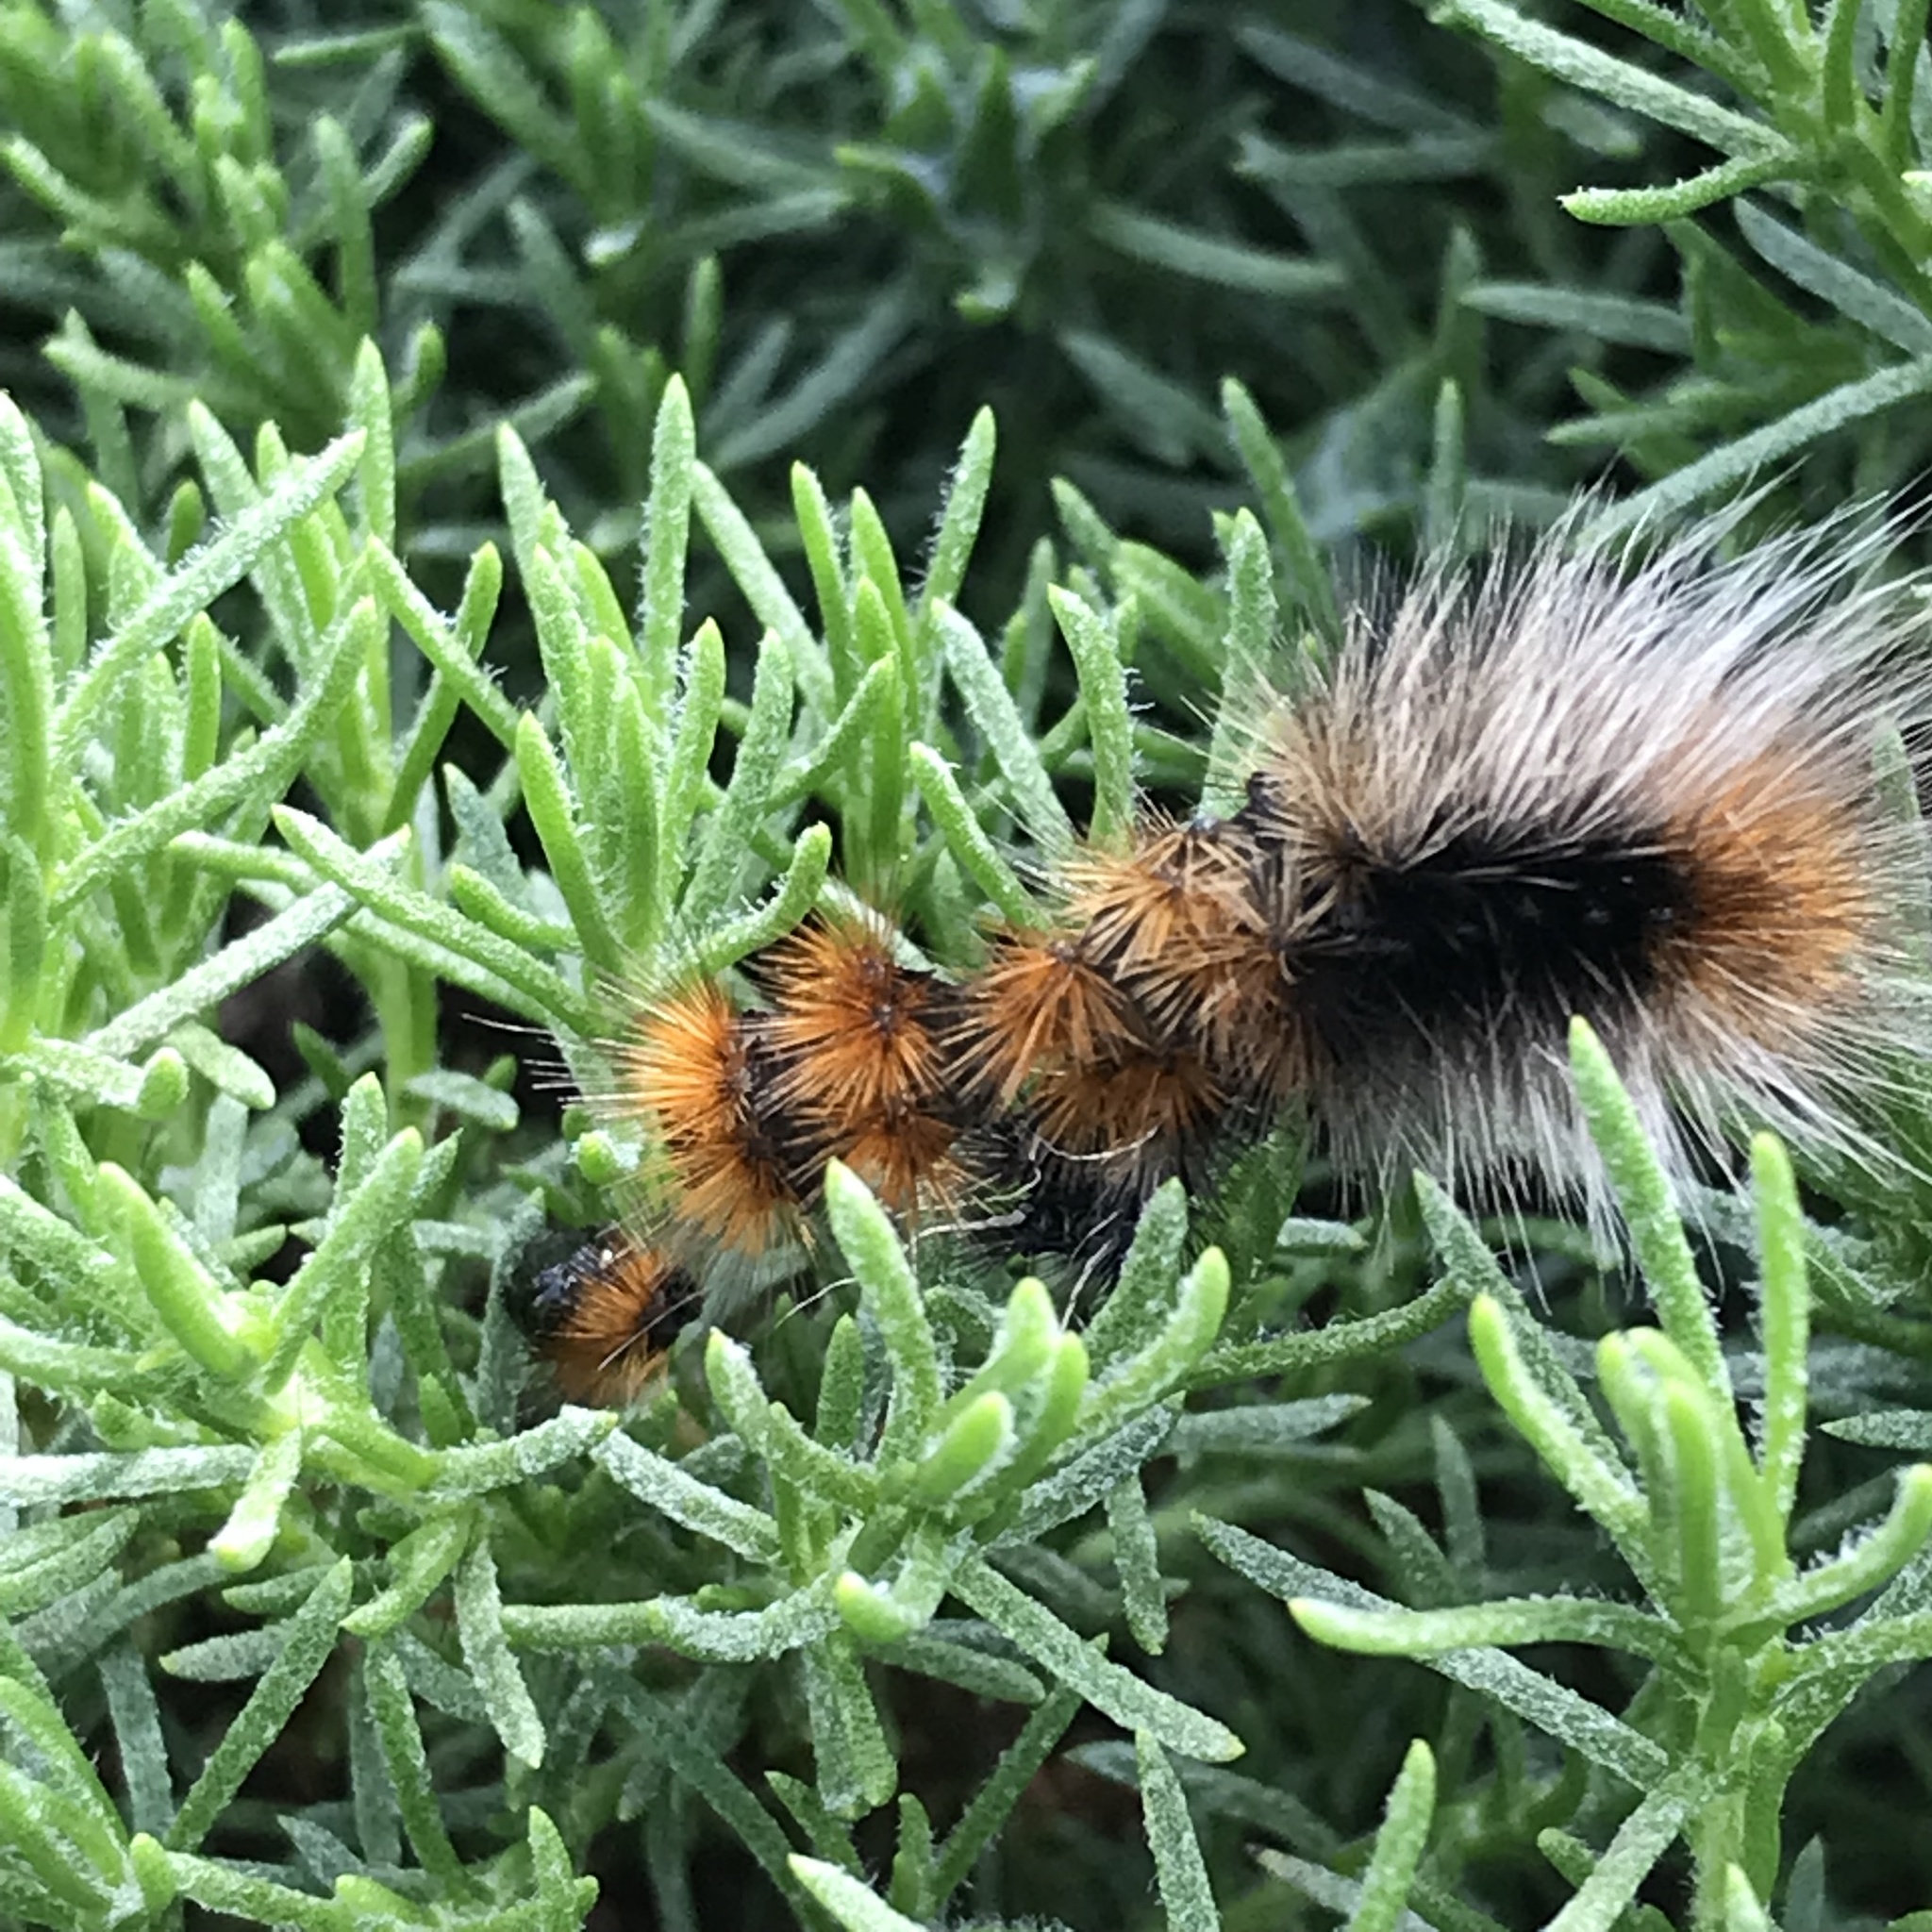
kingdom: Animalia
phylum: Arthropoda
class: Insecta
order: Lepidoptera
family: Erebidae
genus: Arctia
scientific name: Arctia tigrina
